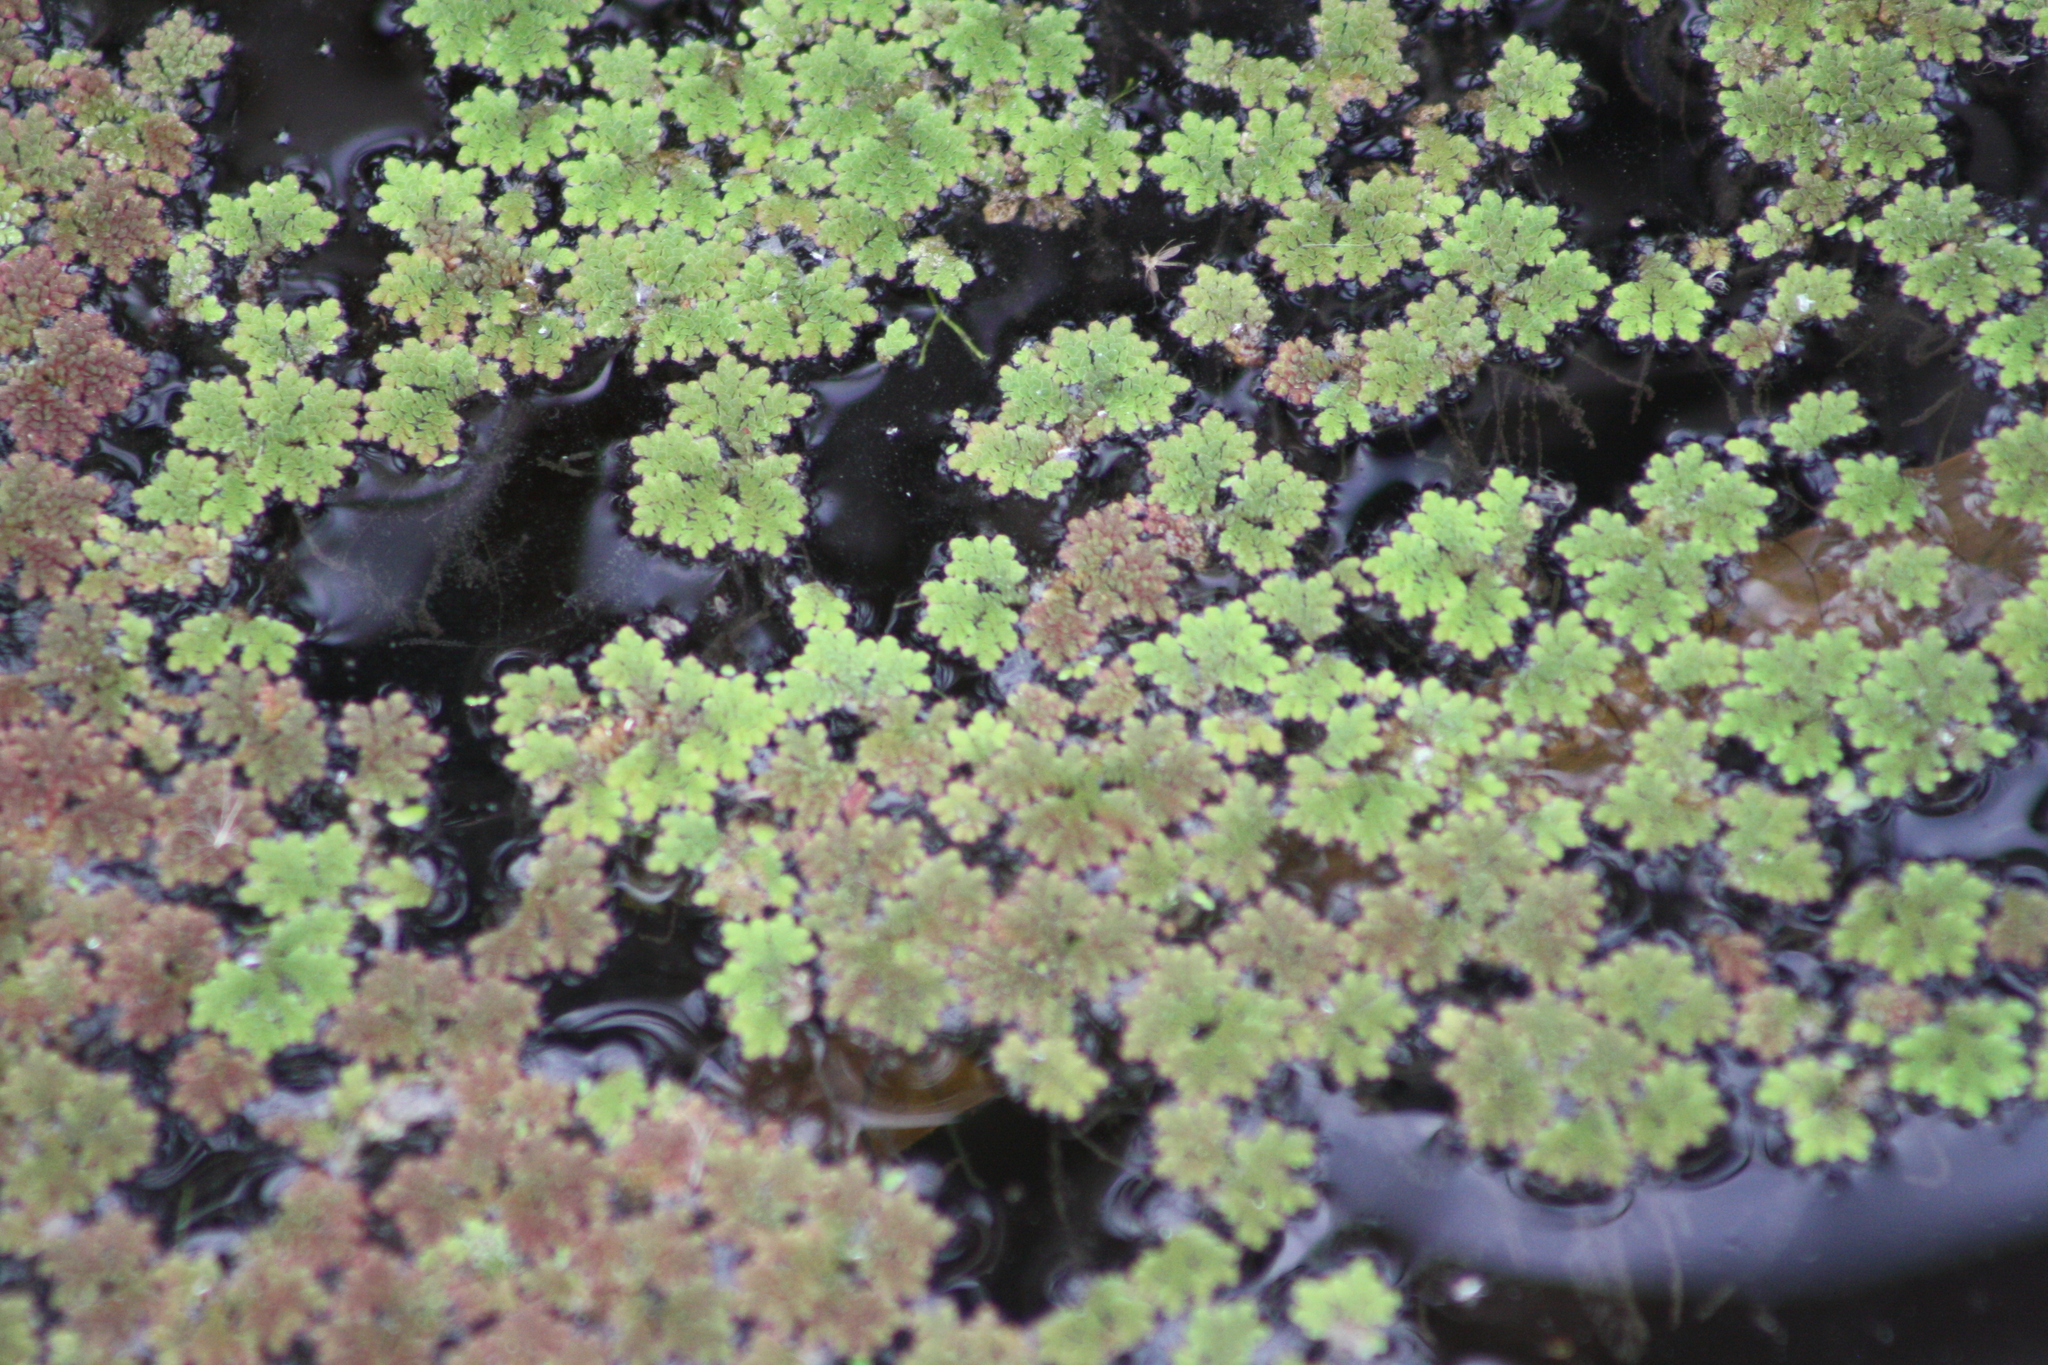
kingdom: Plantae
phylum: Tracheophyta
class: Polypodiopsida
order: Salviniales
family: Salviniaceae
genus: Azolla
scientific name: Azolla caroliniana
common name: Carolina mosquitofern
